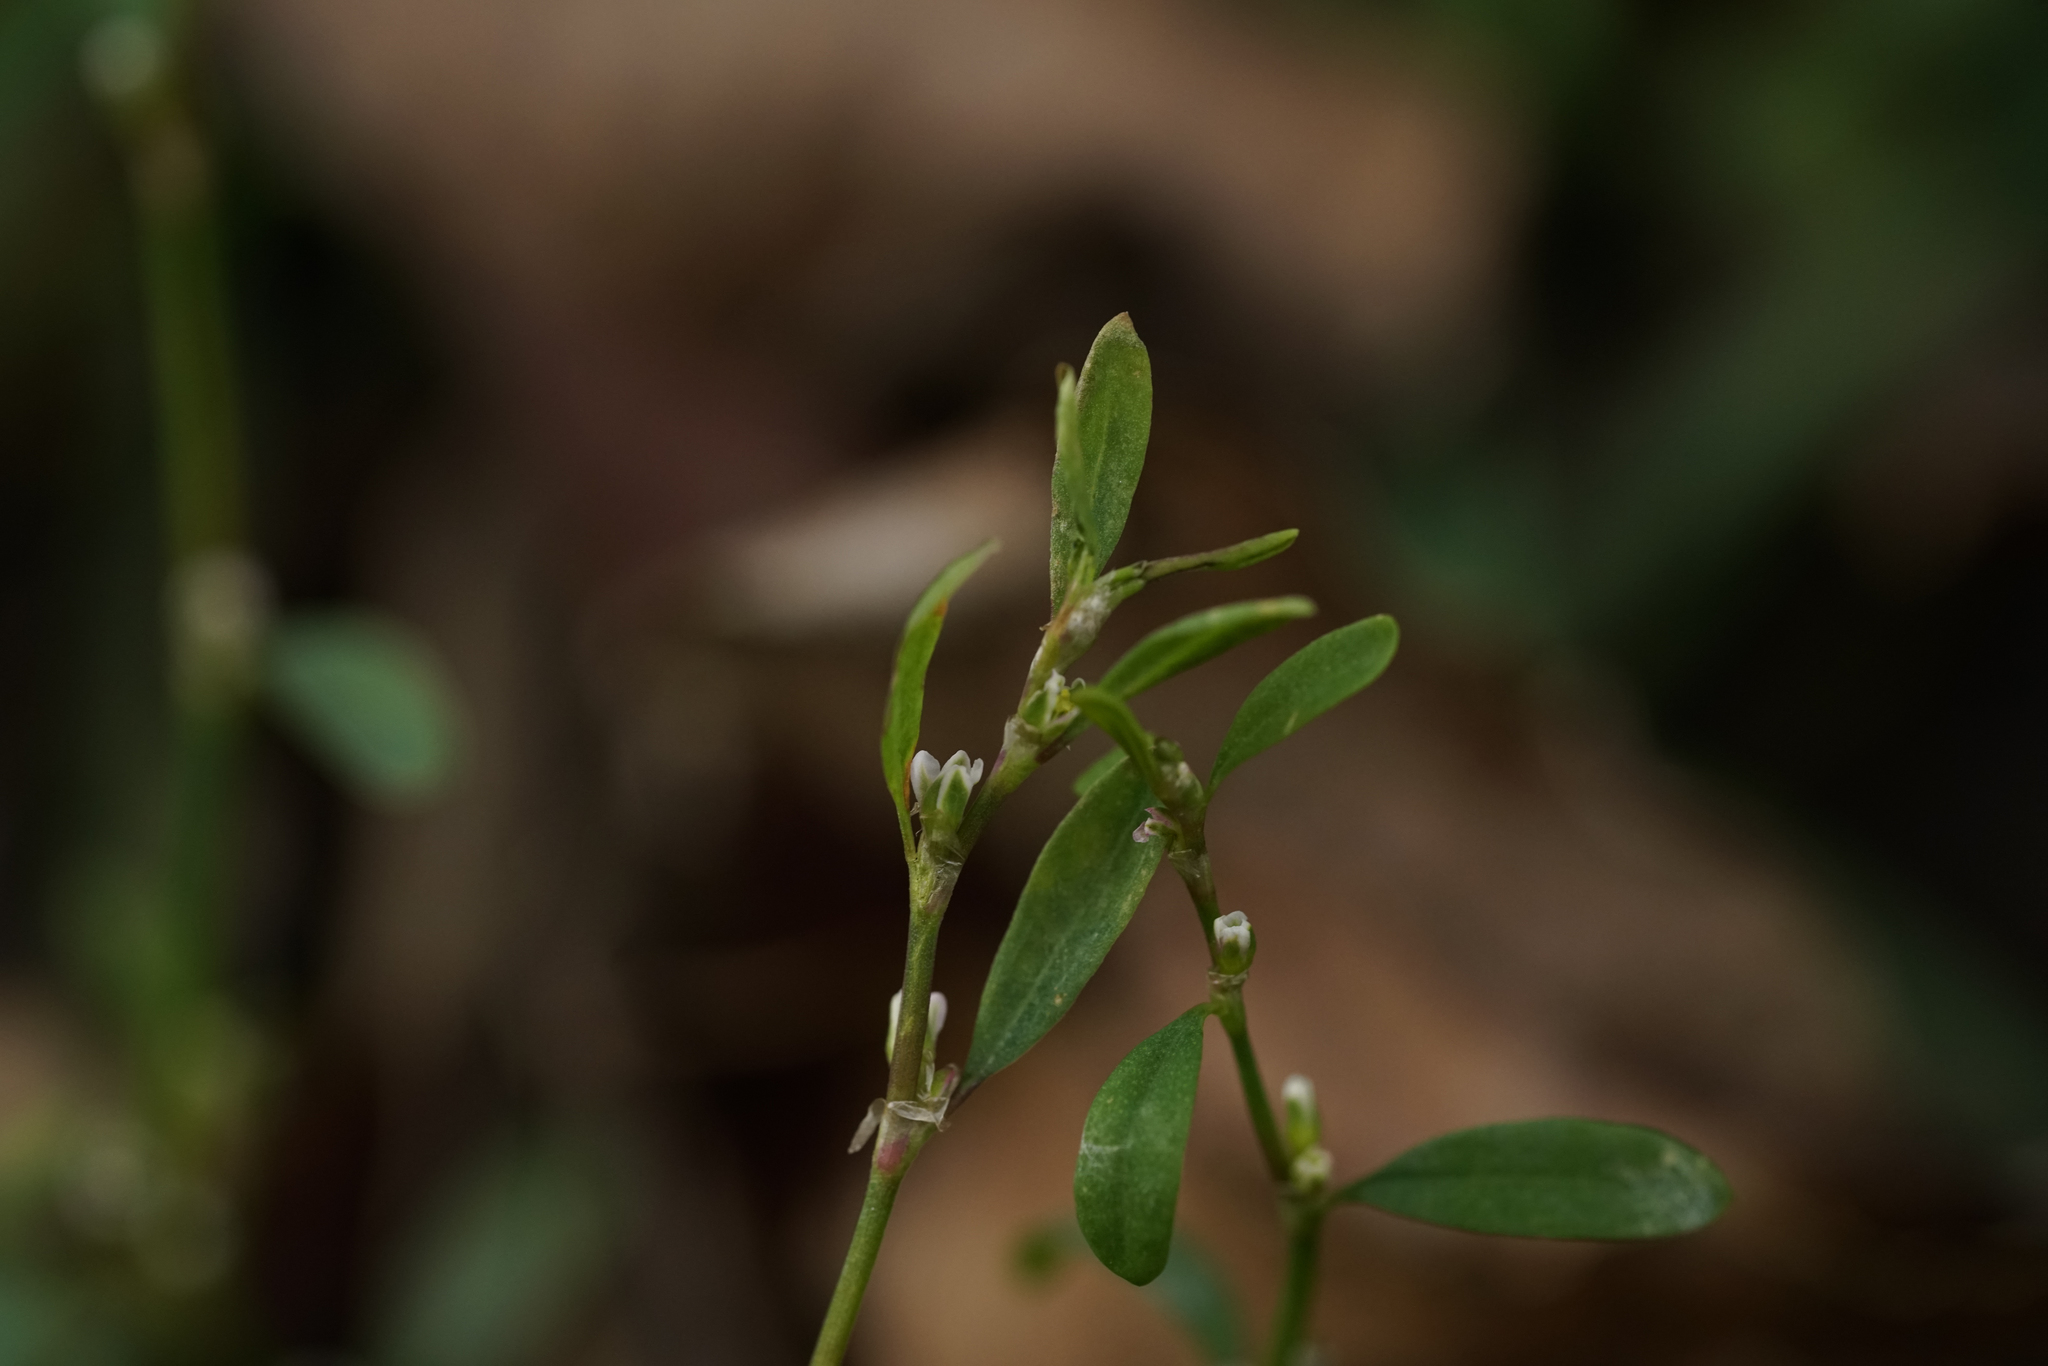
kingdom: Plantae
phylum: Tracheophyta
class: Magnoliopsida
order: Caryophyllales
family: Polygonaceae
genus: Polygonum
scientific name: Polygonum aviculare
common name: Prostrate knotweed
